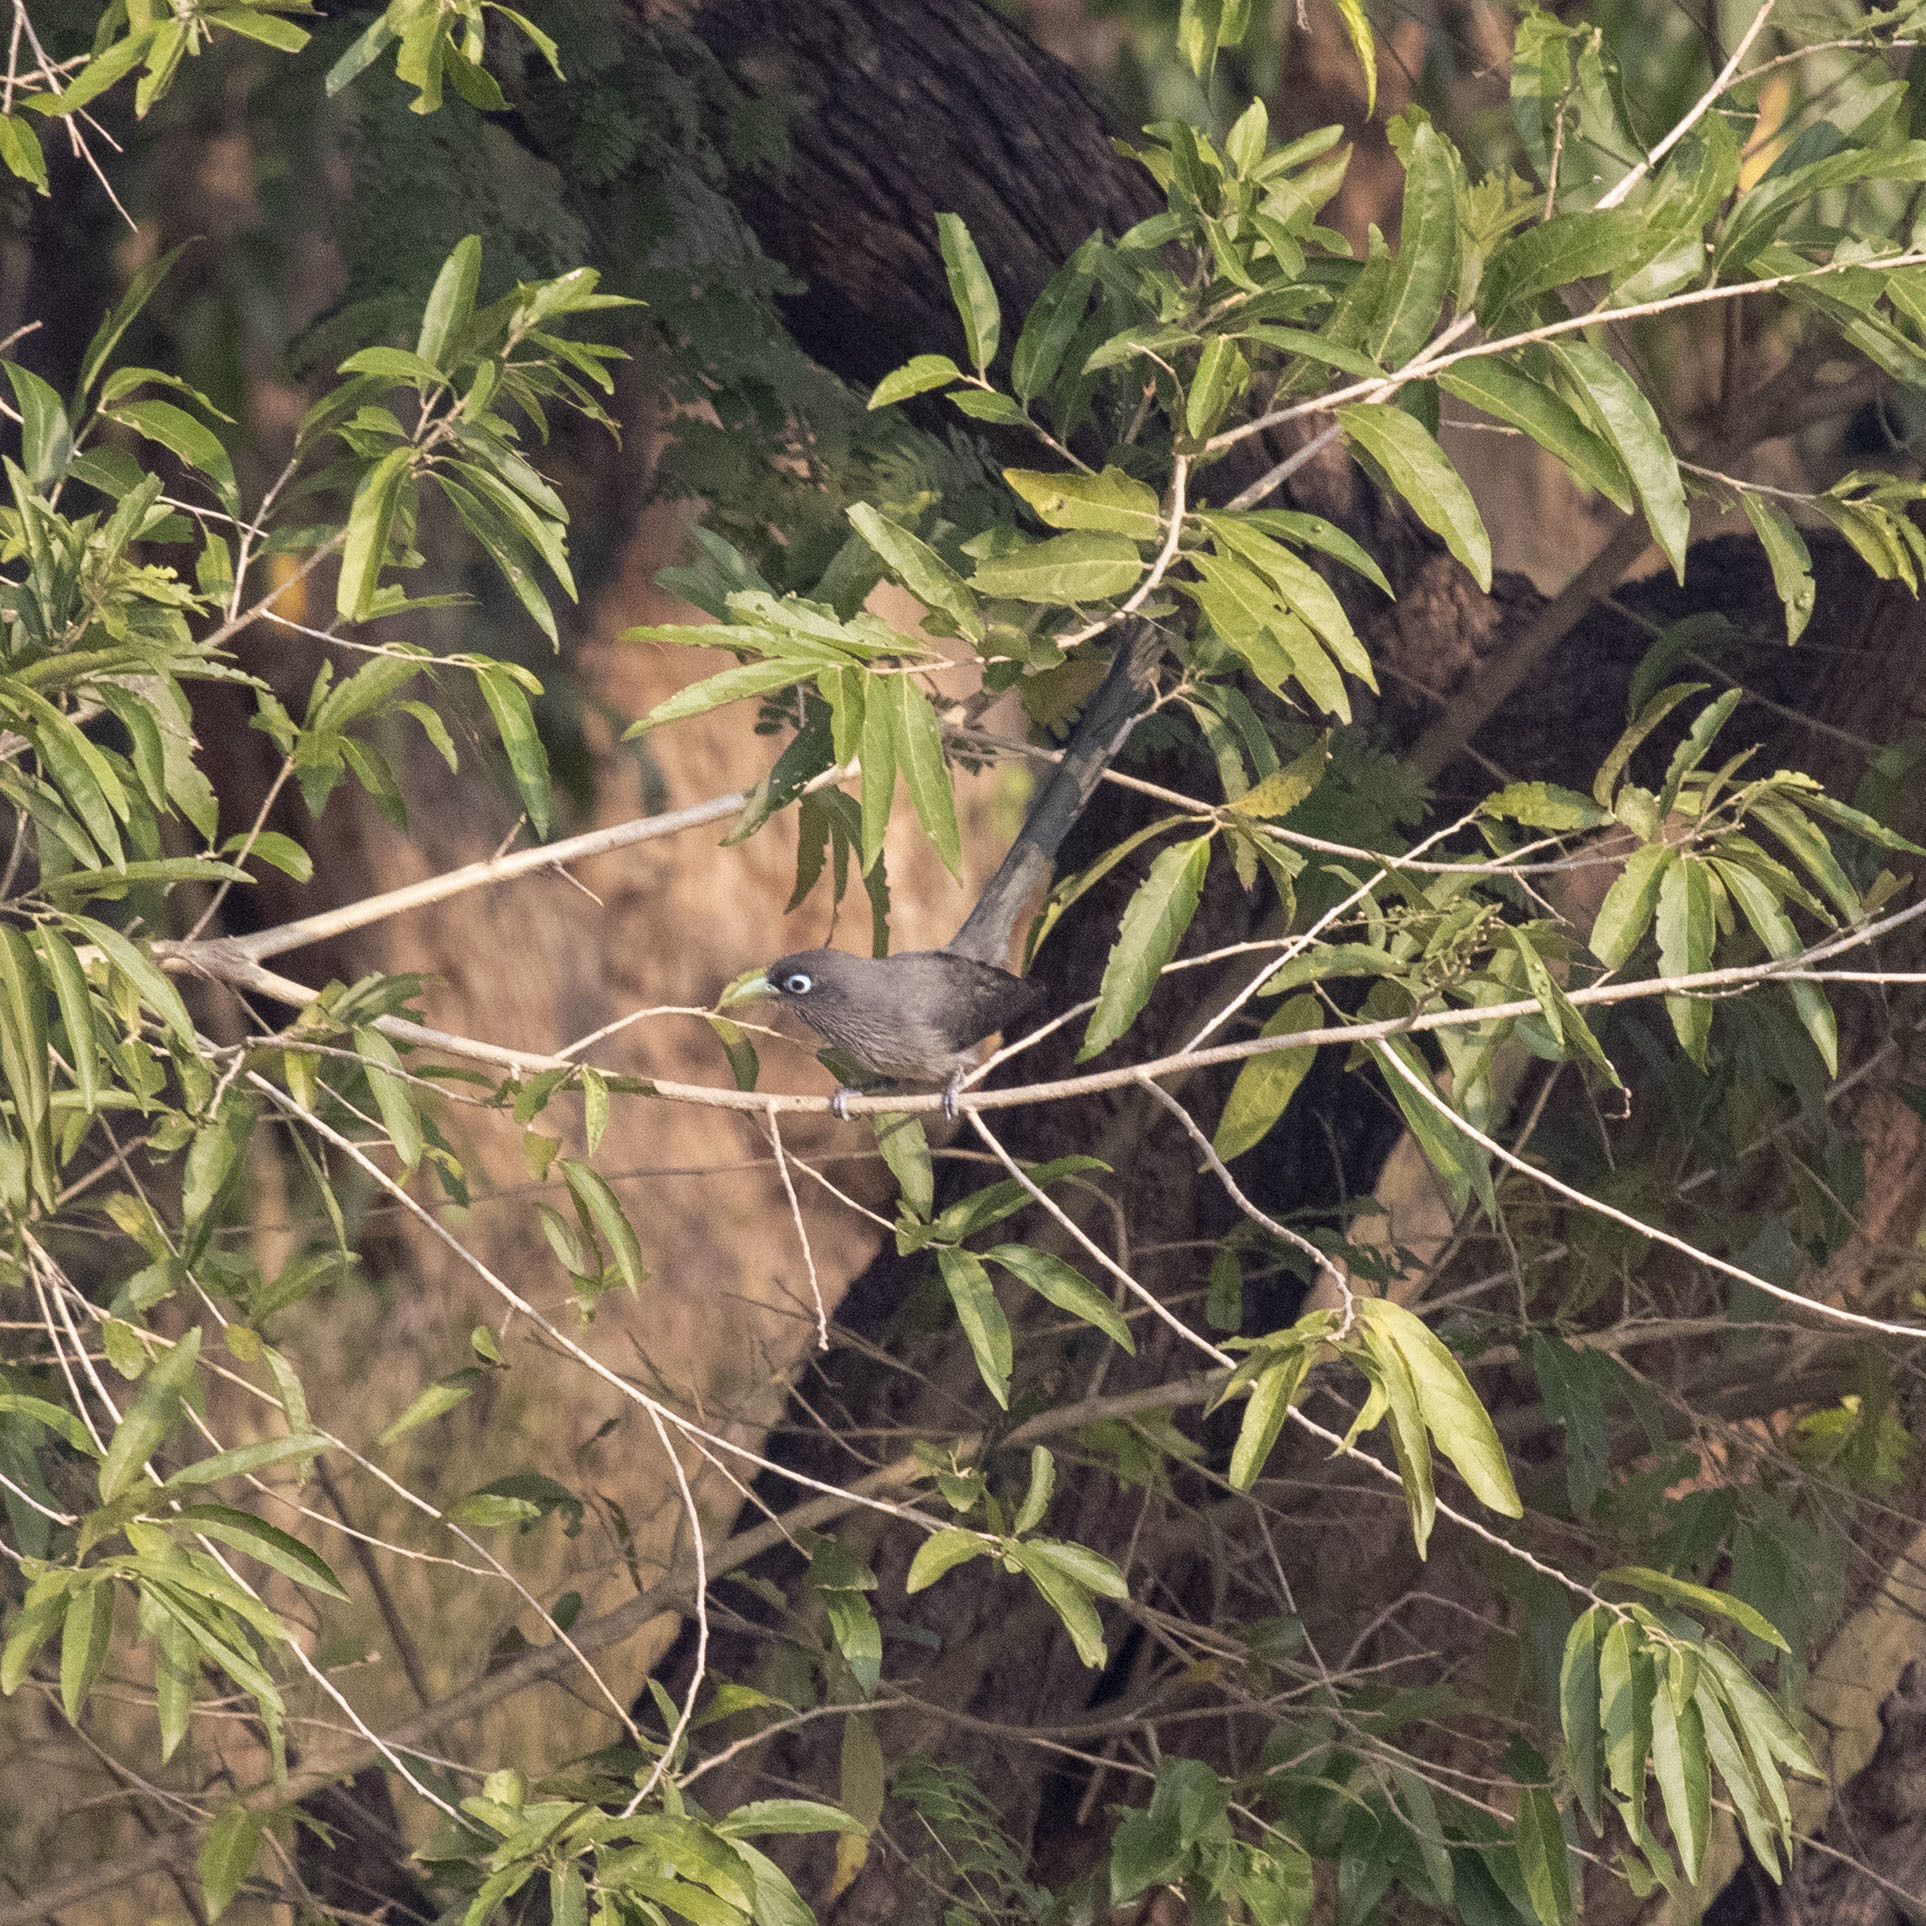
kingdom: Animalia
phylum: Chordata
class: Aves
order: Cuculiformes
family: Cuculidae
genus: Rhopodytes
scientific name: Rhopodytes viridirostris
